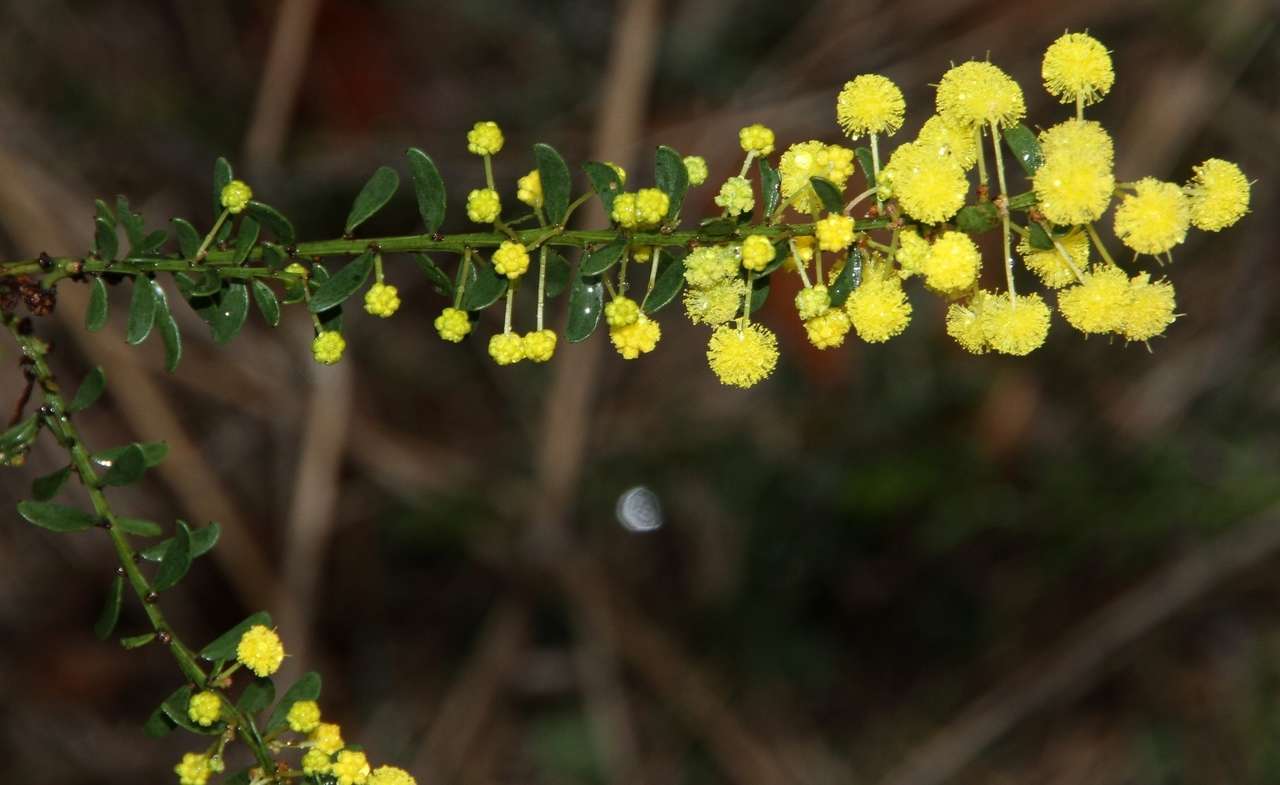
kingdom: Plantae
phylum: Tracheophyta
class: Magnoliopsida
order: Fabales
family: Fabaceae
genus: Acacia
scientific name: Acacia acinacea
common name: Gold-dust acacia
